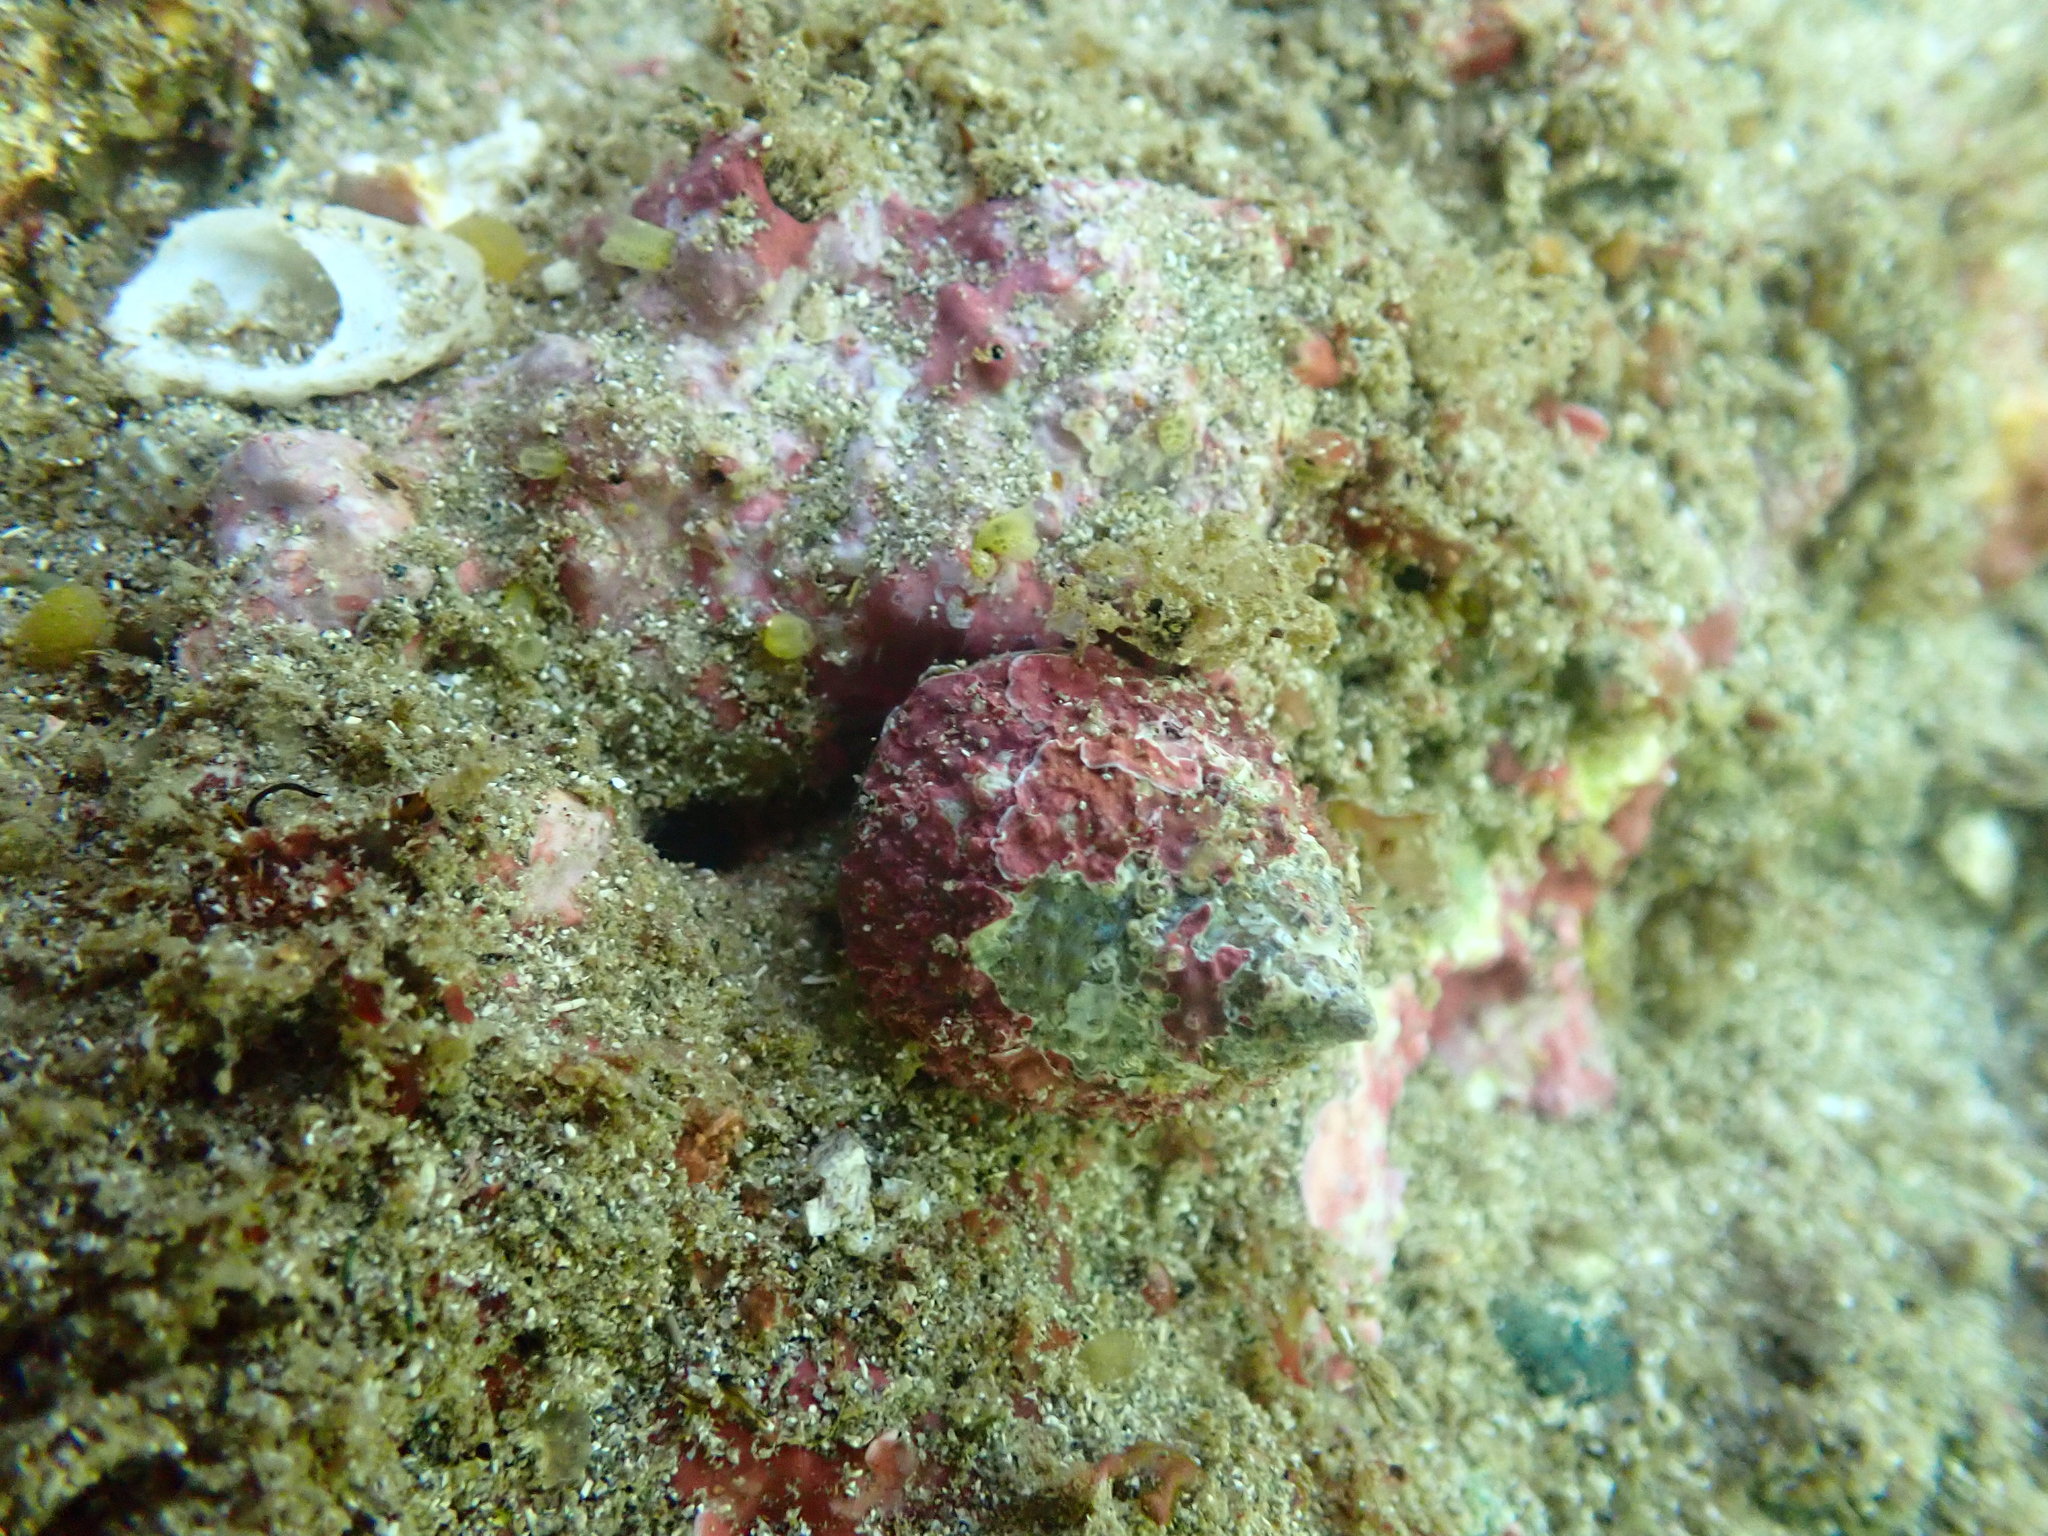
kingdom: Animalia
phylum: Mollusca
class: Gastropoda
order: Trochida
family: Trochidae
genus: Coelotrochus
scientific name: Coelotrochus viridis
